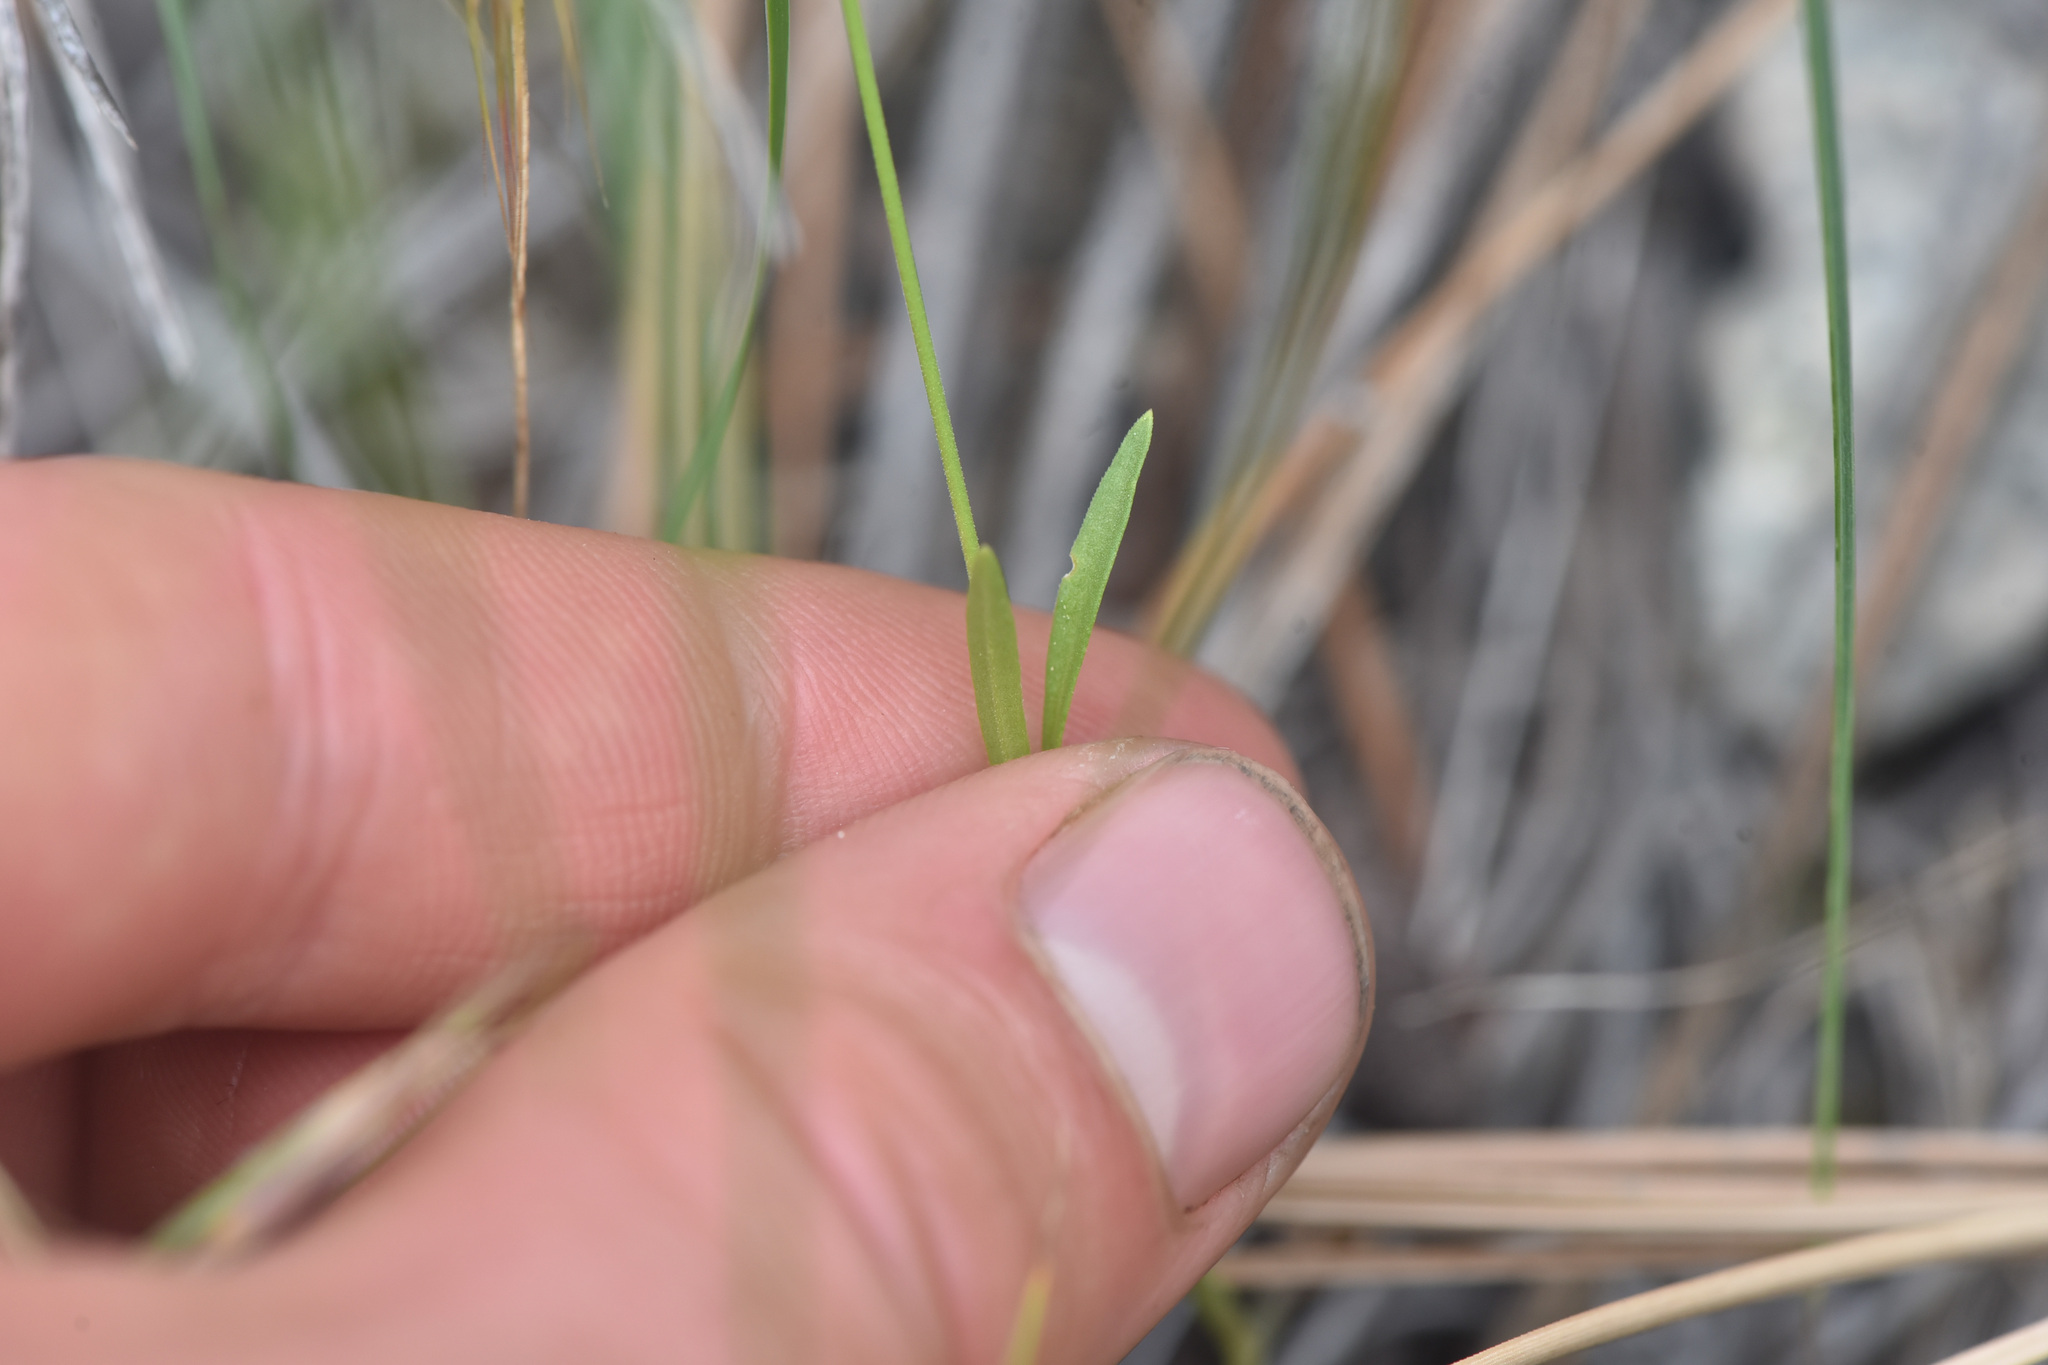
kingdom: Plantae
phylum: Tracheophyta
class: Magnoliopsida
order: Caryophyllales
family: Caryophyllaceae
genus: Silene
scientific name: Silene antirrhina
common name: Sleepy catchfly
